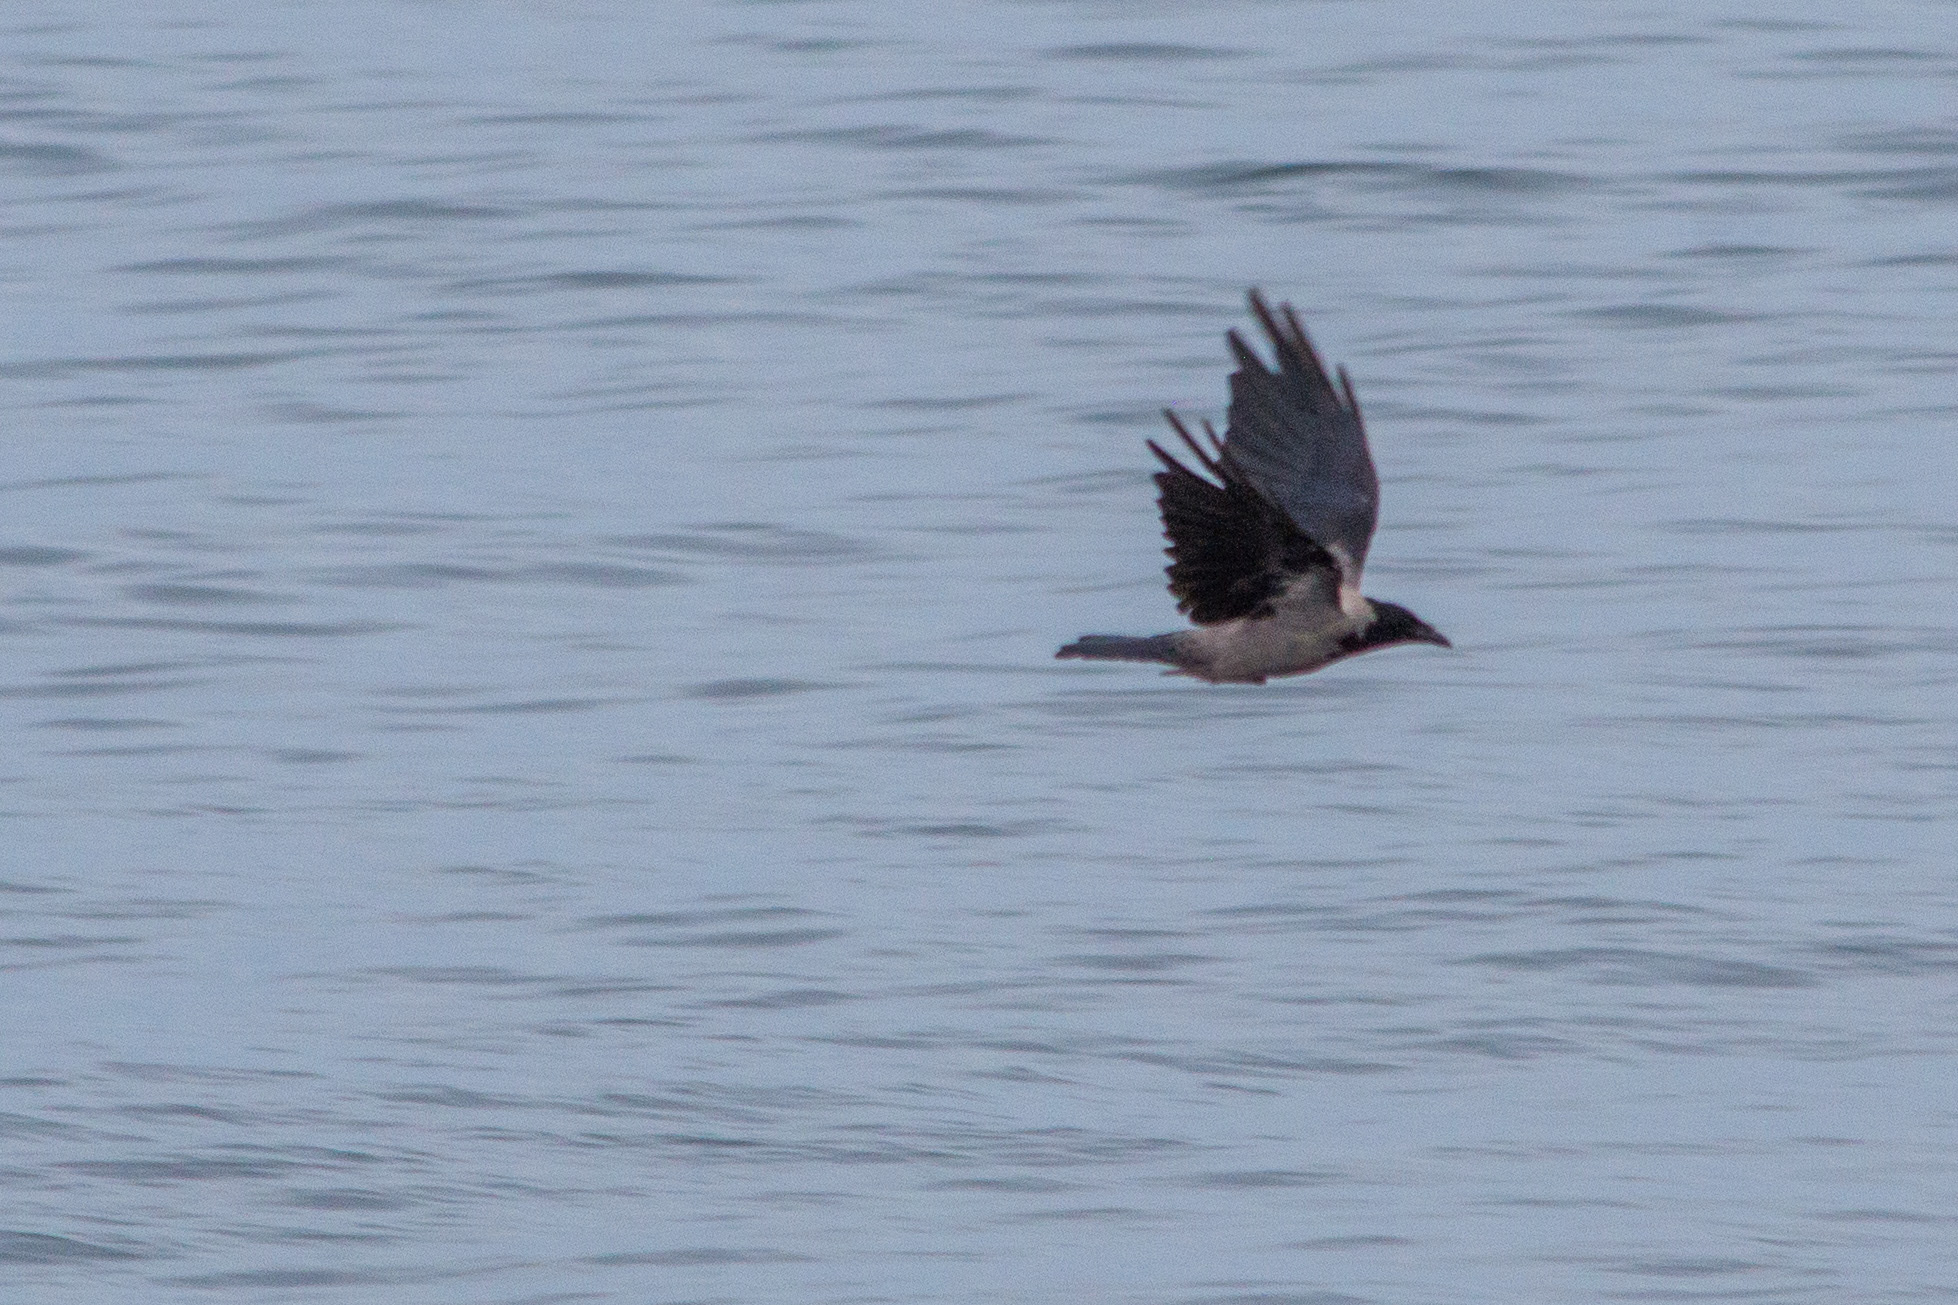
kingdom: Animalia
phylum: Chordata
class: Aves
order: Passeriformes
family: Corvidae
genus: Corvus
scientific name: Corvus cornix
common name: Hooded crow
